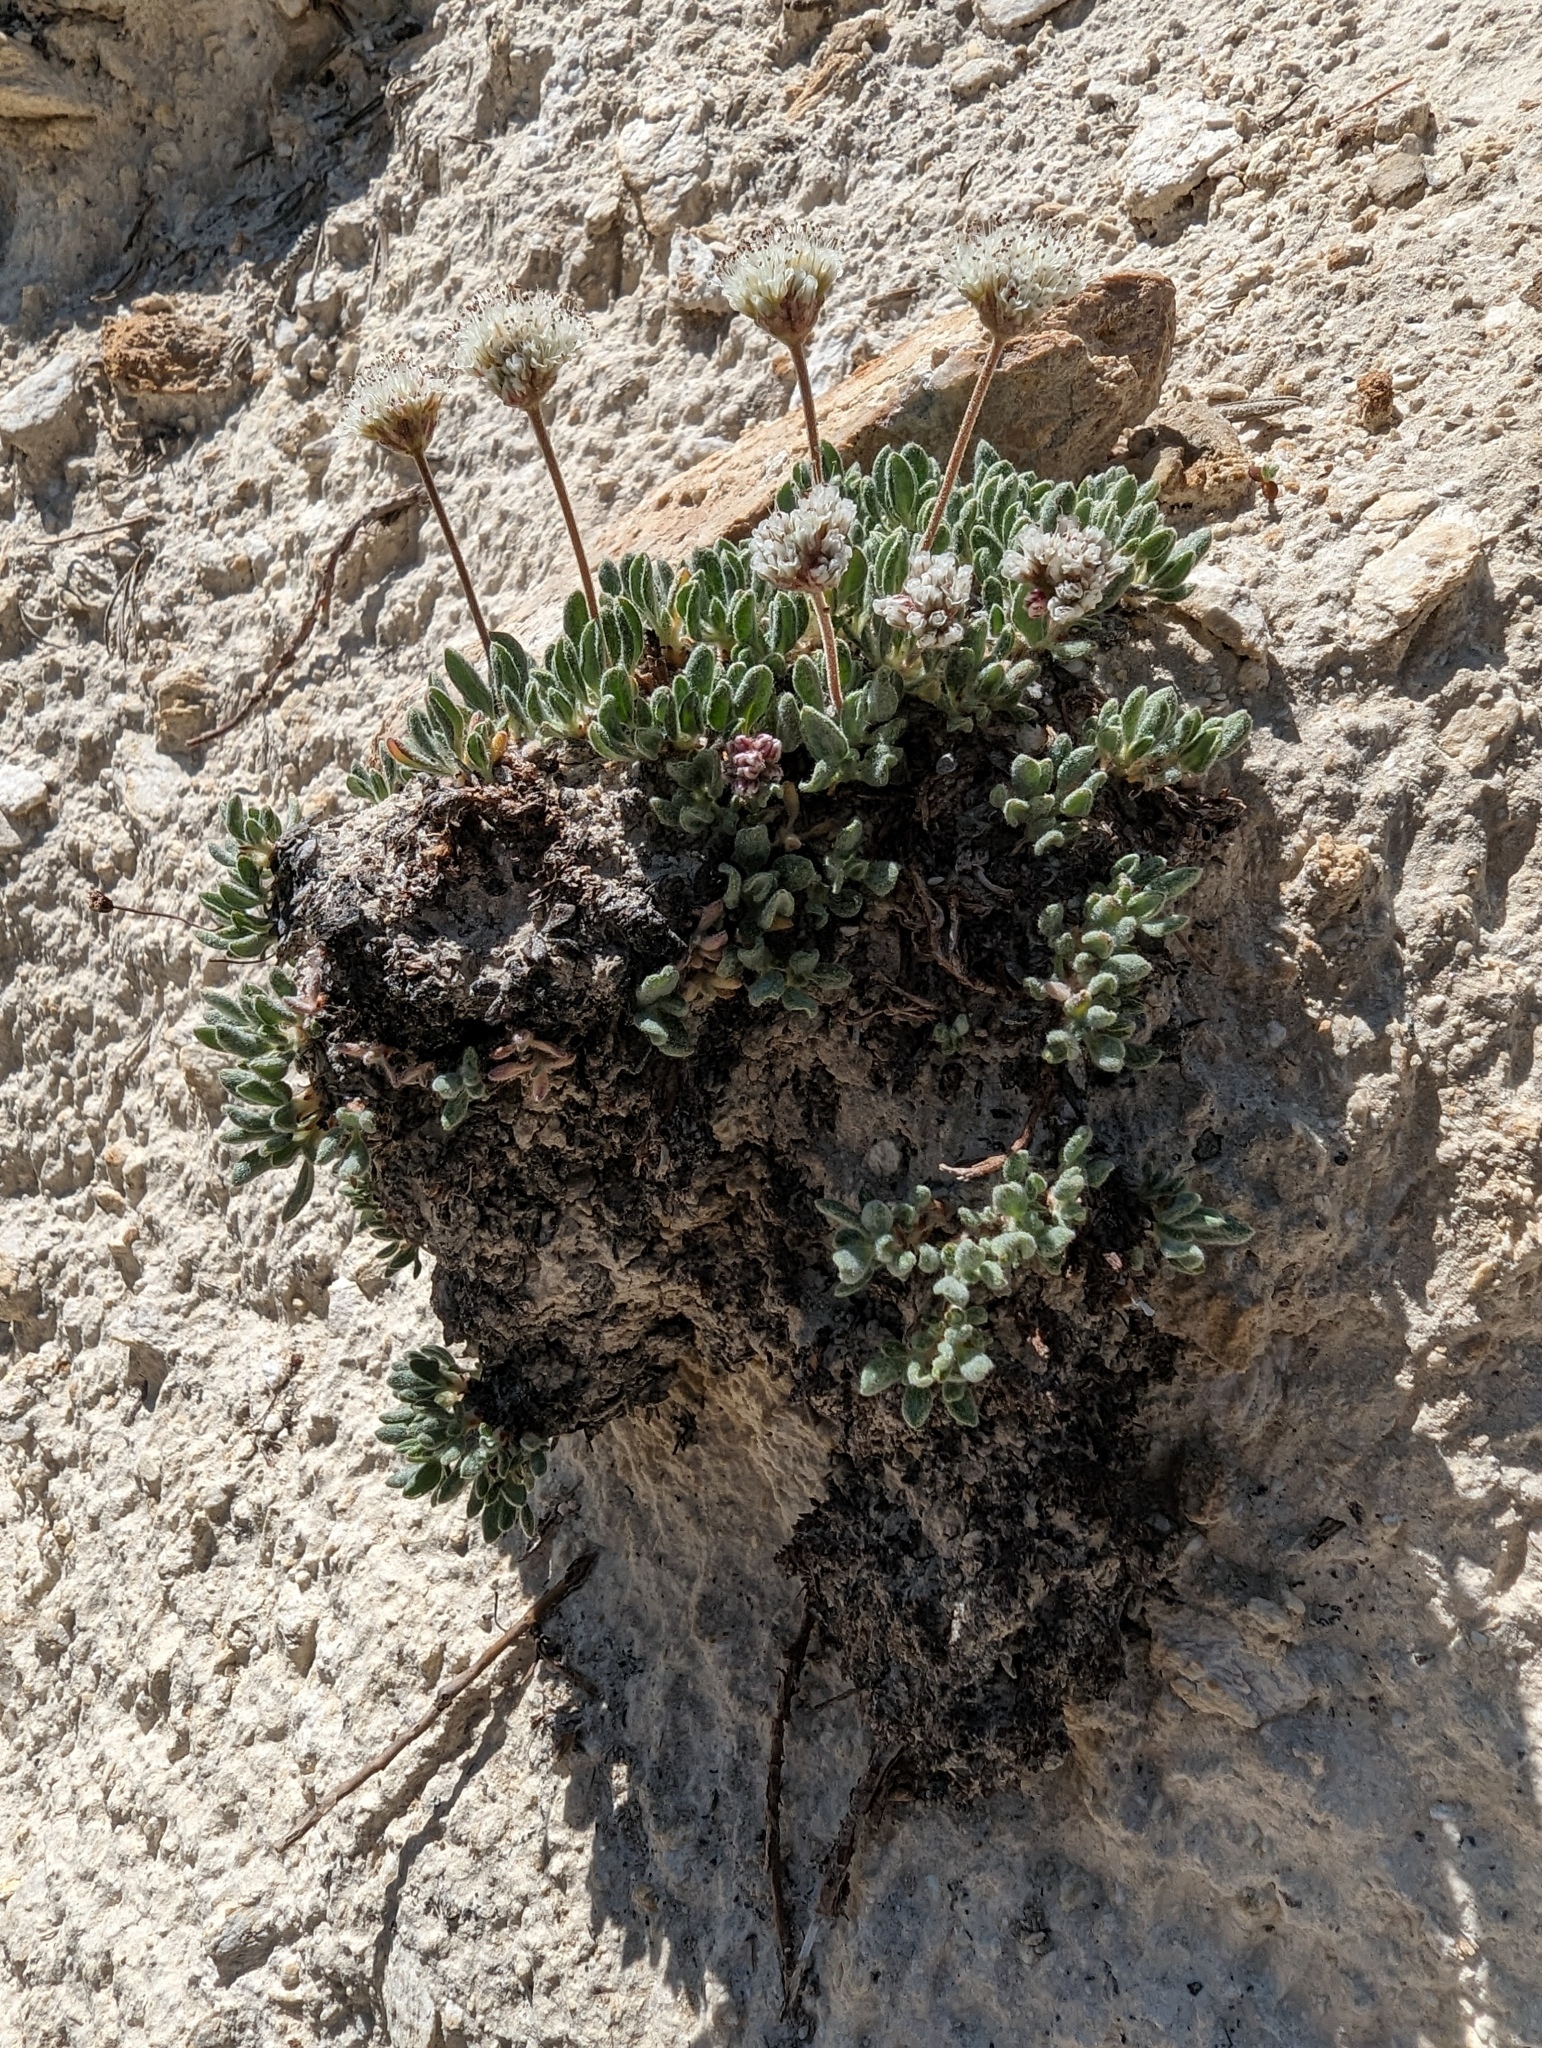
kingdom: Plantae
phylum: Tracheophyta
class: Magnoliopsida
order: Caryophyllales
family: Polygonaceae
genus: Eriogonum
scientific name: Eriogonum gracilipes
